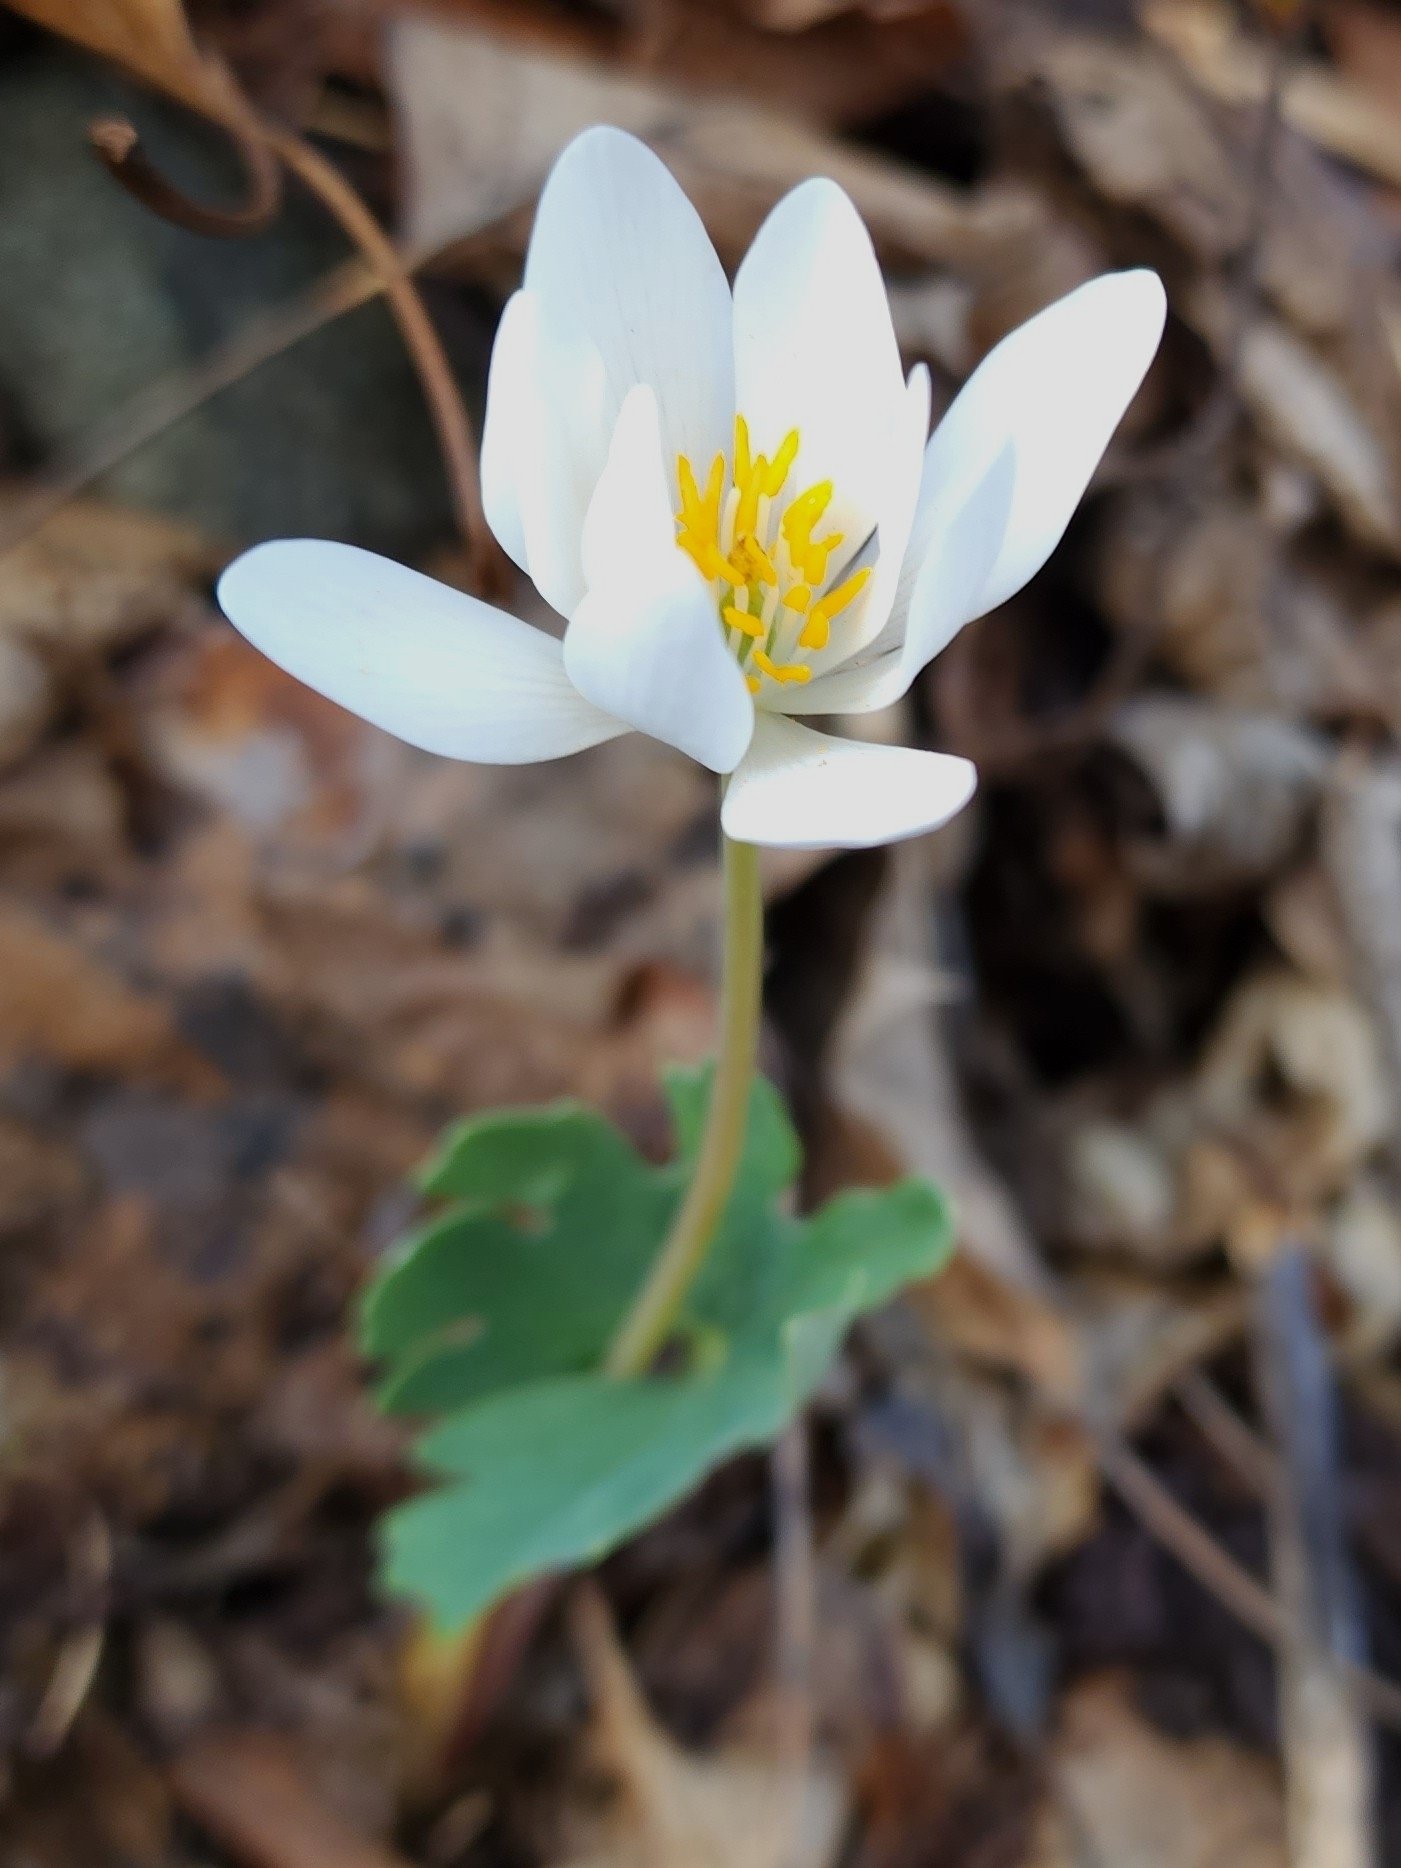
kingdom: Plantae
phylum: Tracheophyta
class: Magnoliopsida
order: Ranunculales
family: Papaveraceae
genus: Sanguinaria
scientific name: Sanguinaria canadensis
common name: Bloodroot
